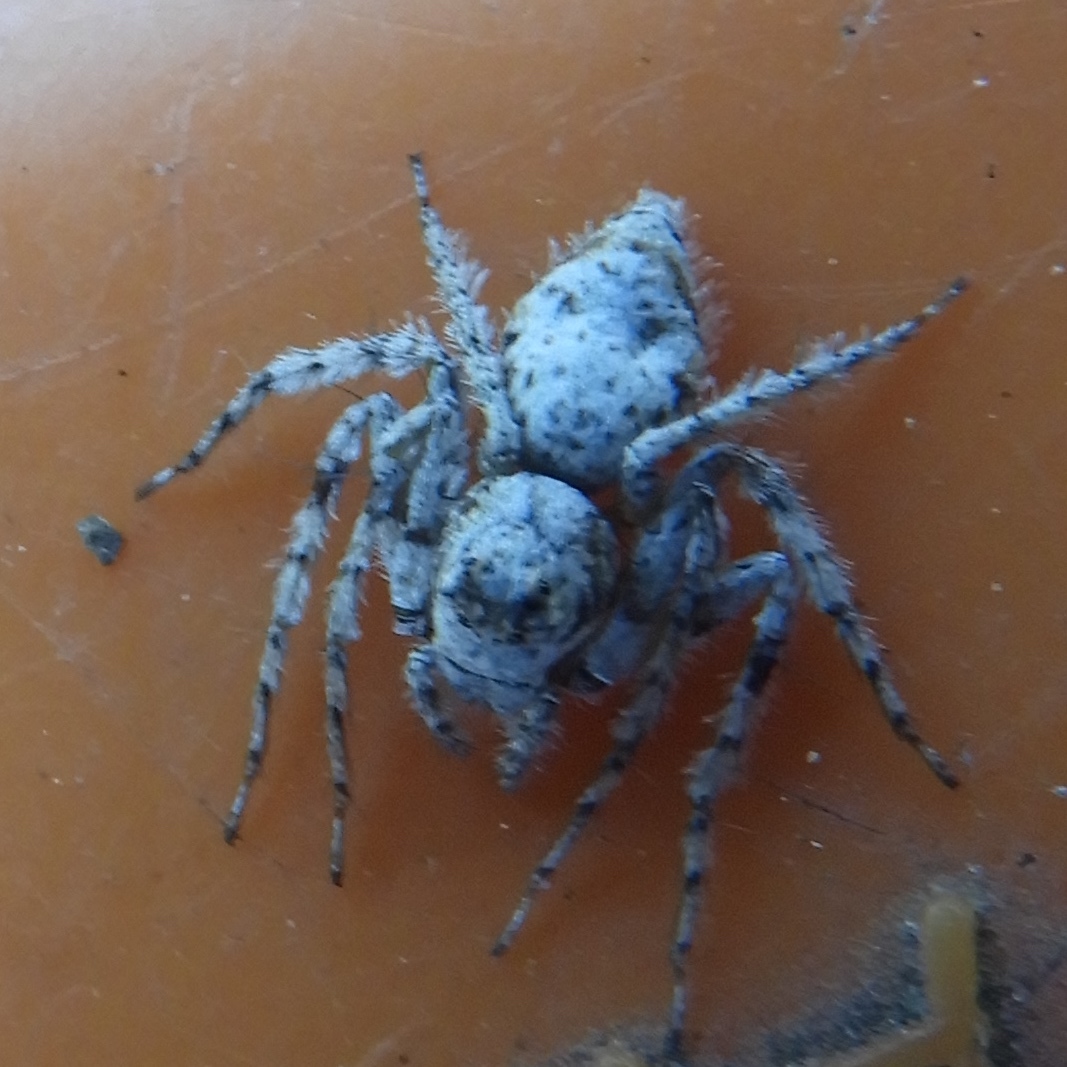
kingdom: Animalia
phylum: Arthropoda
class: Arachnida
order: Araneae
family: Oxyopidae
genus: Hamataliwa
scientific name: Hamataliwa
